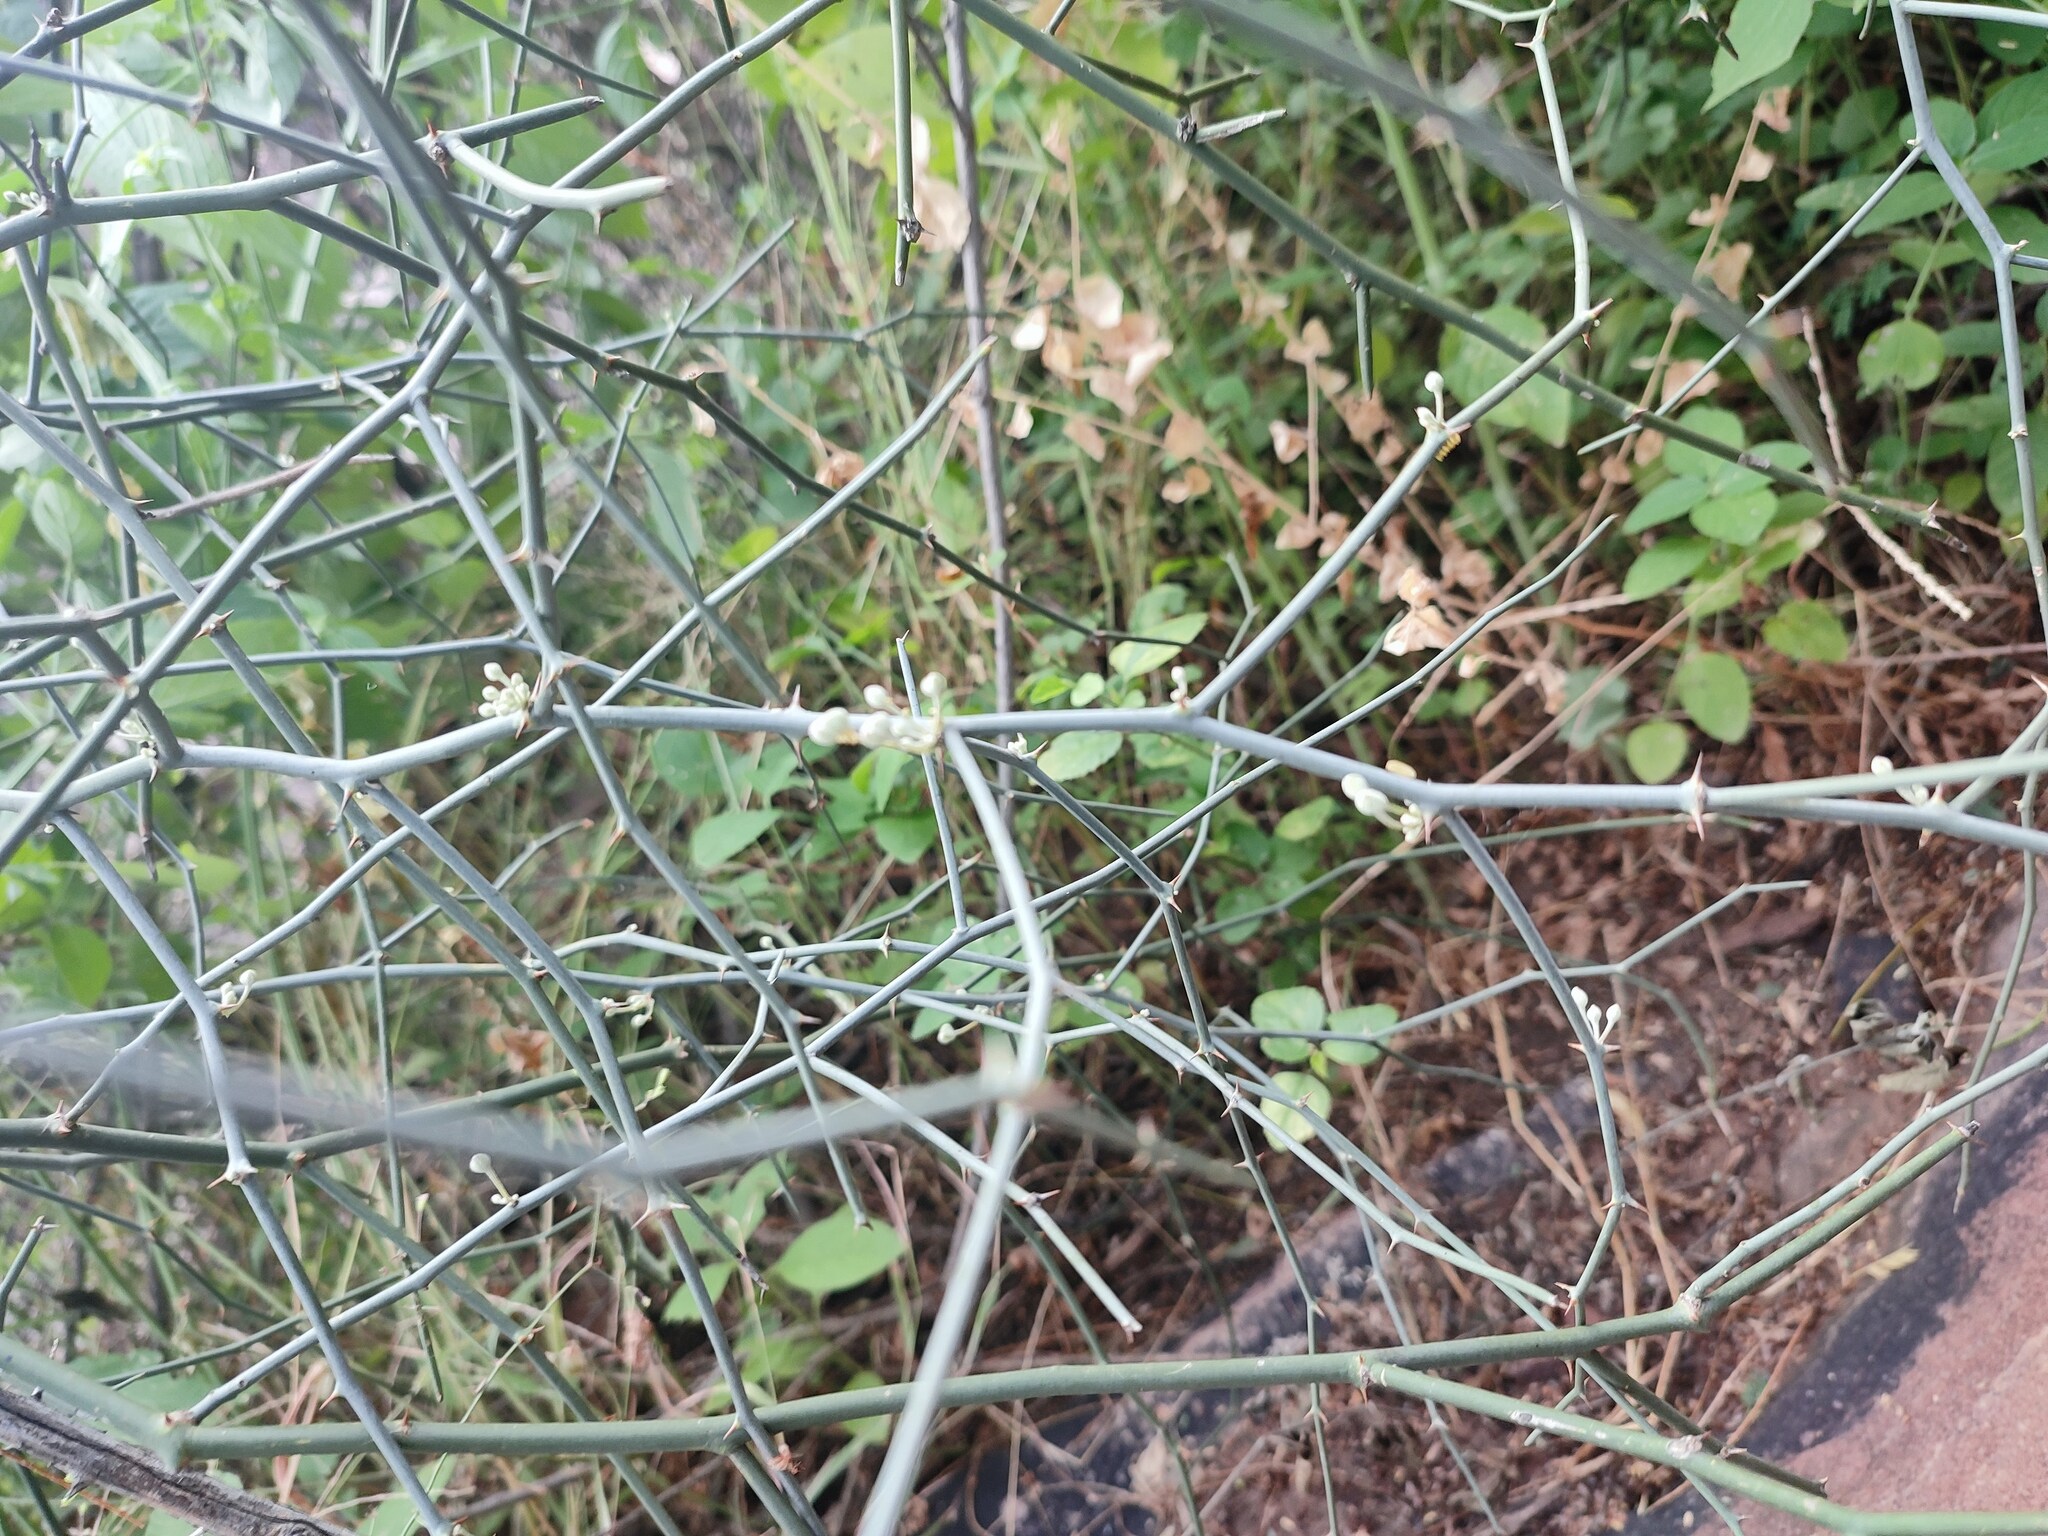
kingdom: Plantae
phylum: Tracheophyta
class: Magnoliopsida
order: Brassicales
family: Capparaceae
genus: Capparis
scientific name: Capparis decidua
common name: Sodada
